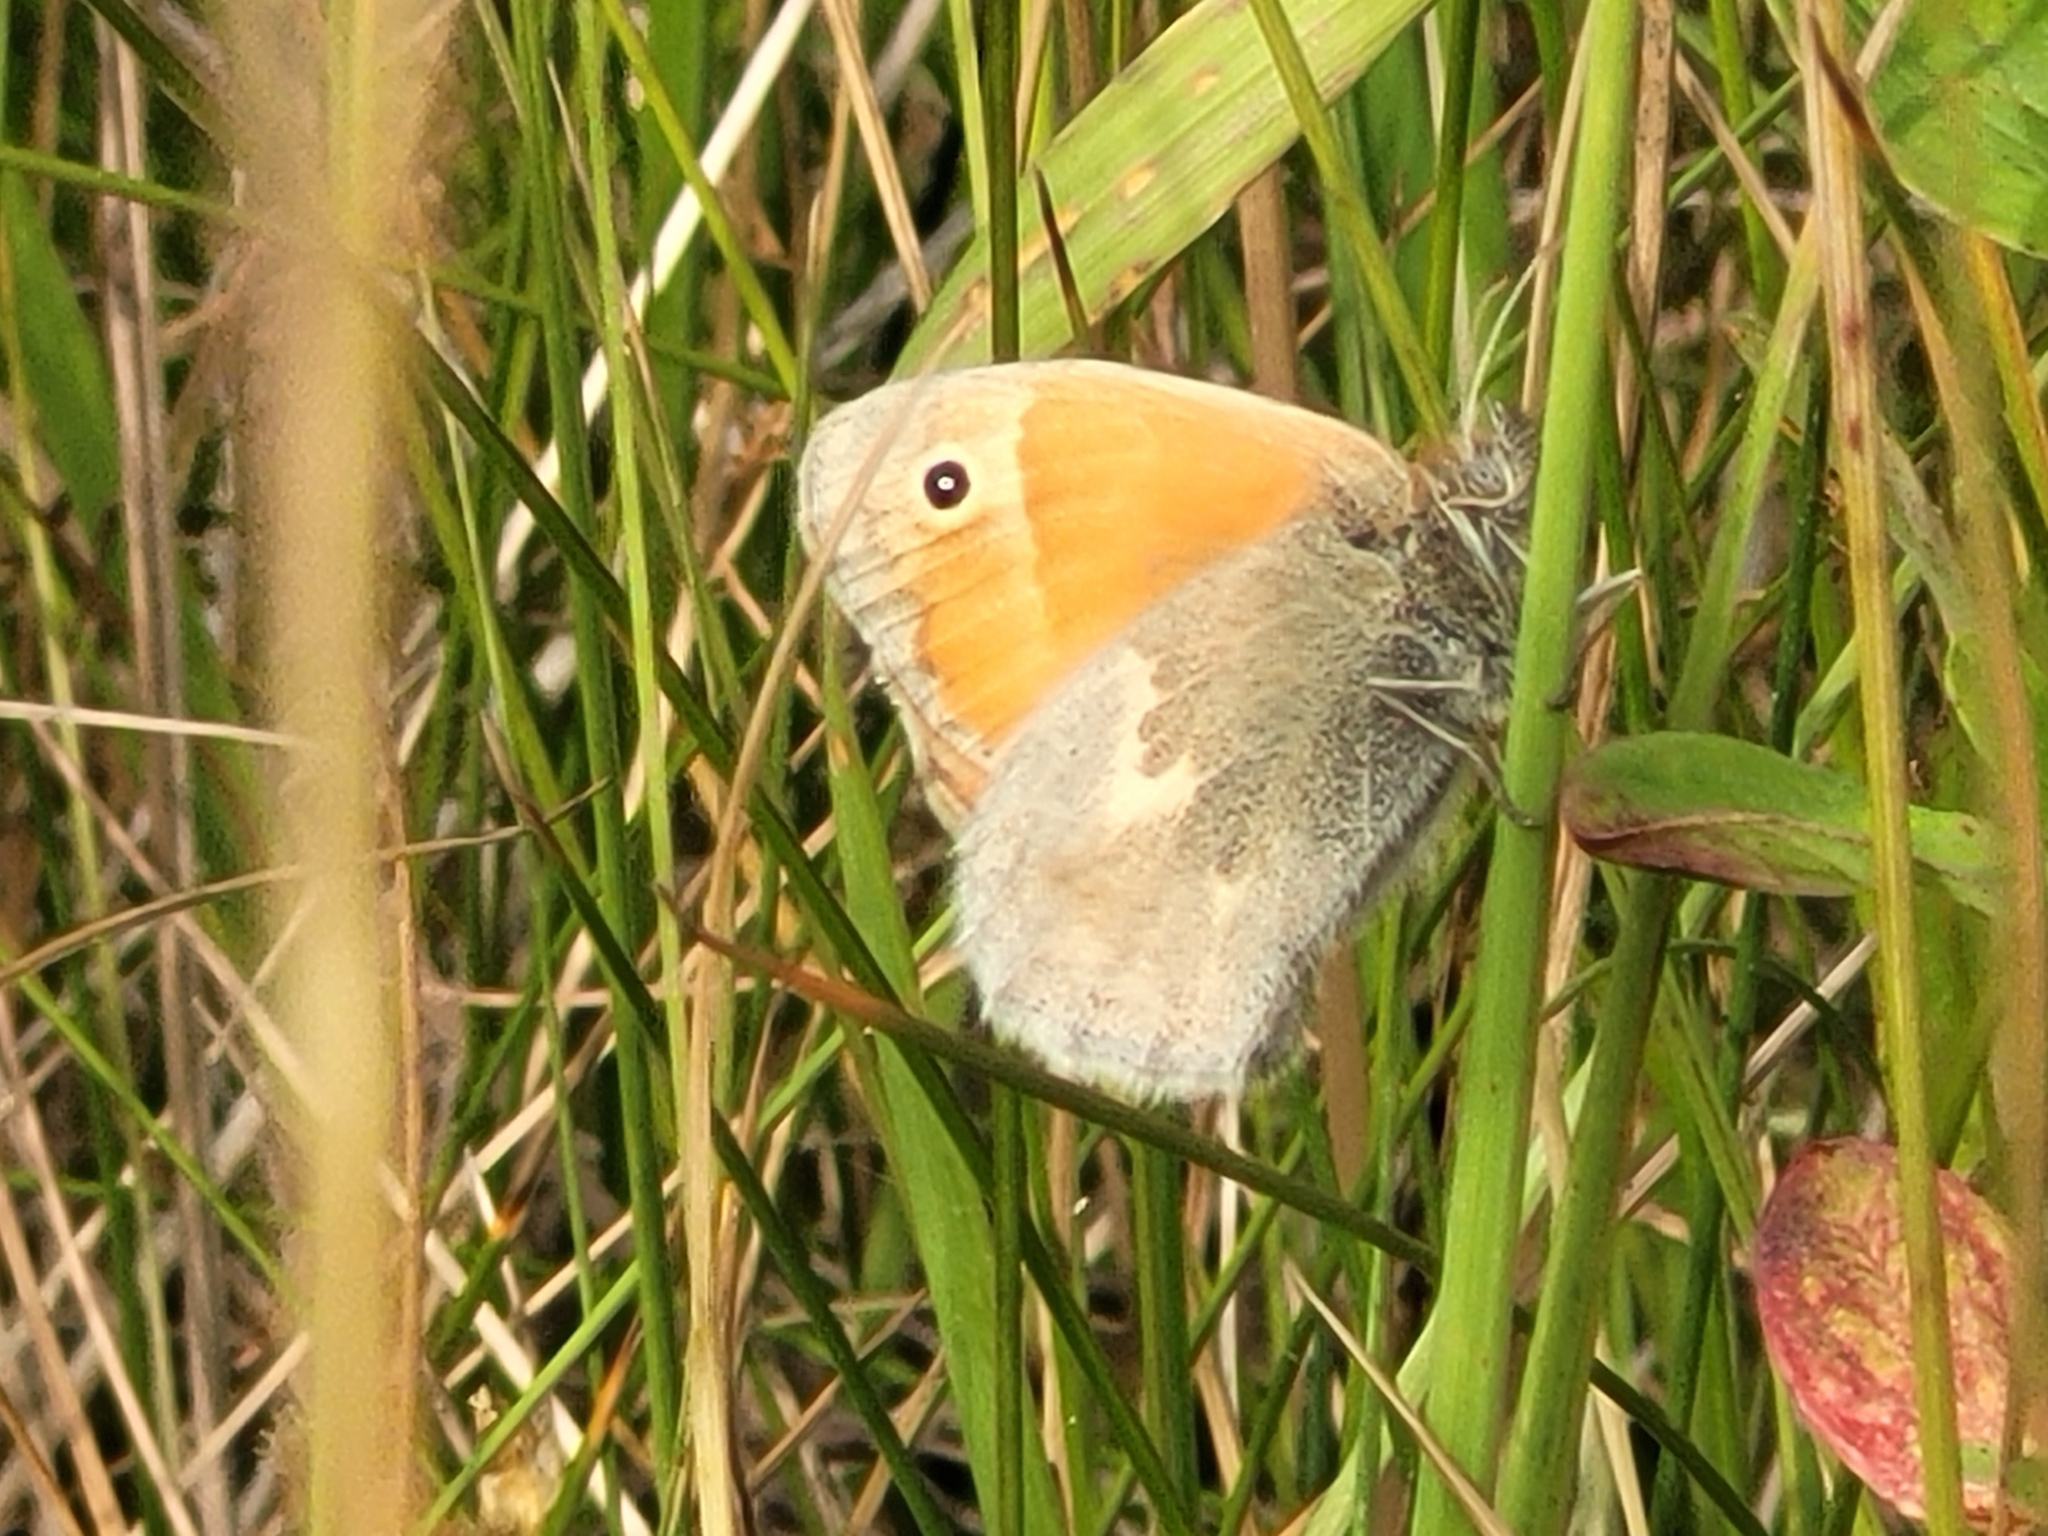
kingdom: Animalia
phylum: Arthropoda
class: Insecta
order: Lepidoptera
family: Nymphalidae
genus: Coenonympha
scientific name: Coenonympha pamphilus
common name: Small heath
